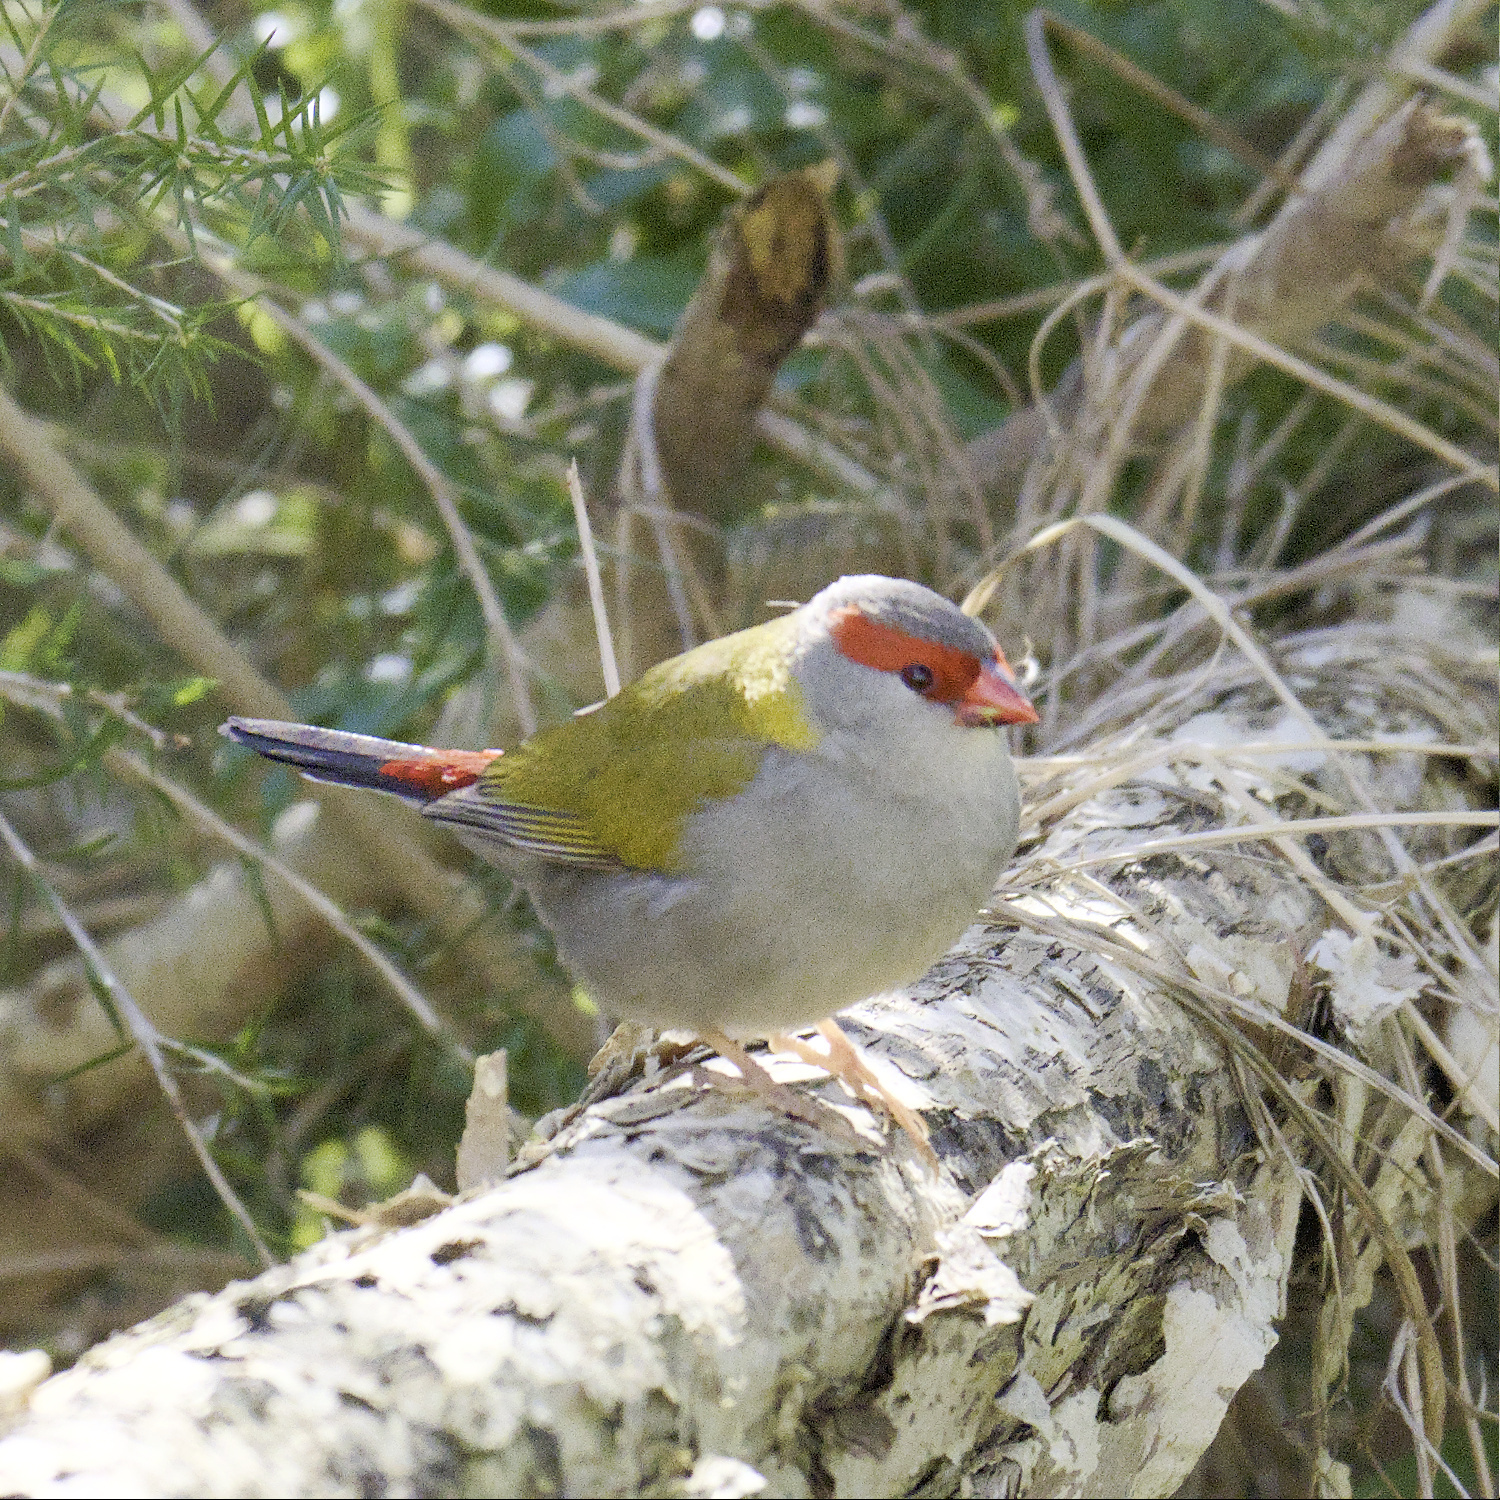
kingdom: Animalia
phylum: Chordata
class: Aves
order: Passeriformes
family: Estrildidae
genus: Neochmia
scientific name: Neochmia temporalis
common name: Red-browed finch
